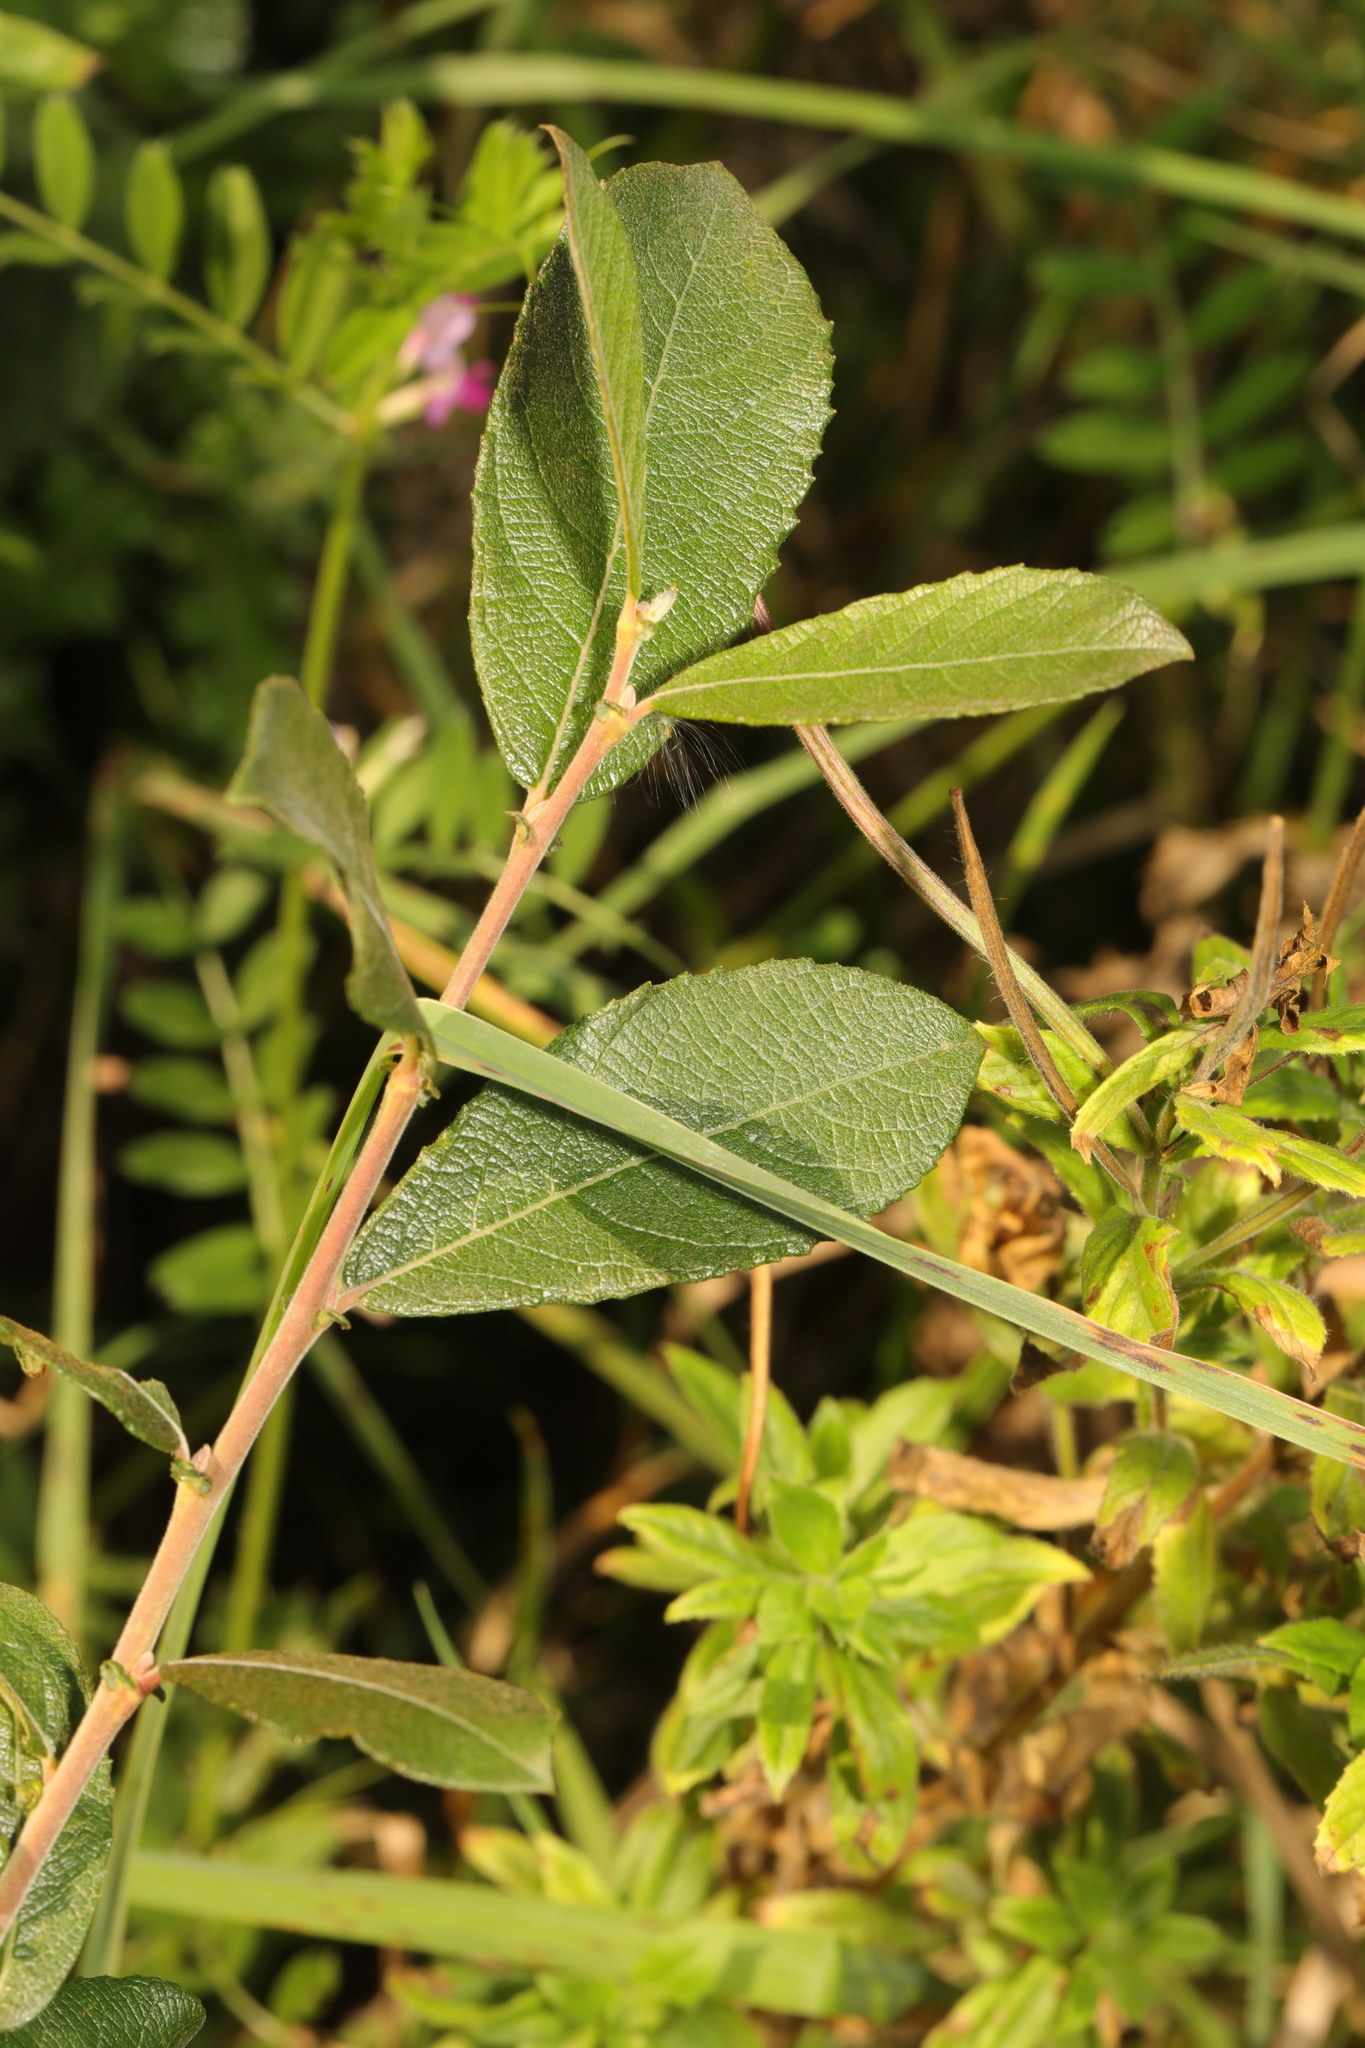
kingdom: Plantae
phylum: Tracheophyta
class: Magnoliopsida
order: Malpighiales
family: Salicaceae
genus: Salix
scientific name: Salix cinerea
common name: Common sallow
